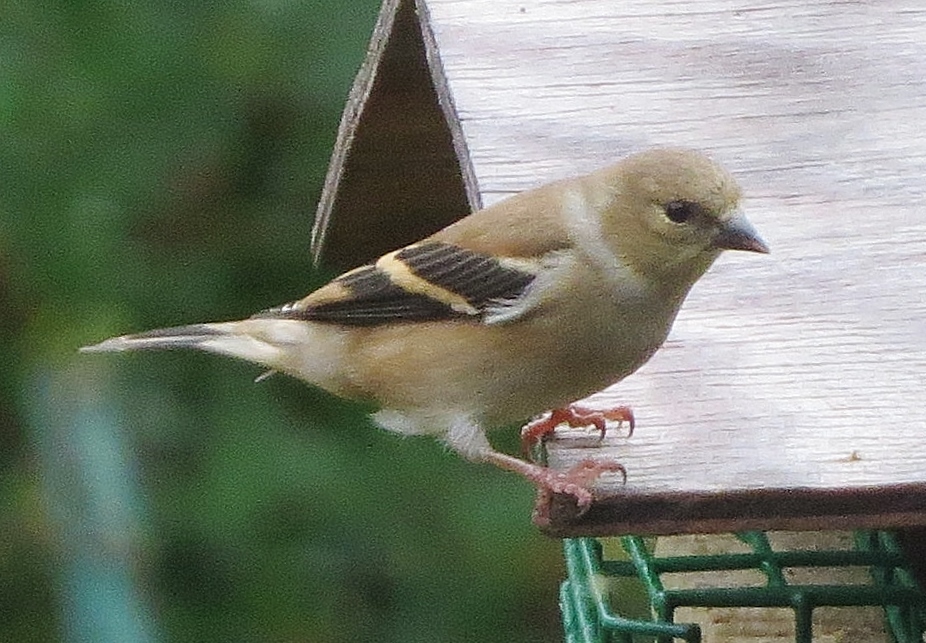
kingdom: Animalia
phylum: Chordata
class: Aves
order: Passeriformes
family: Fringillidae
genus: Spinus
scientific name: Spinus tristis
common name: American goldfinch
